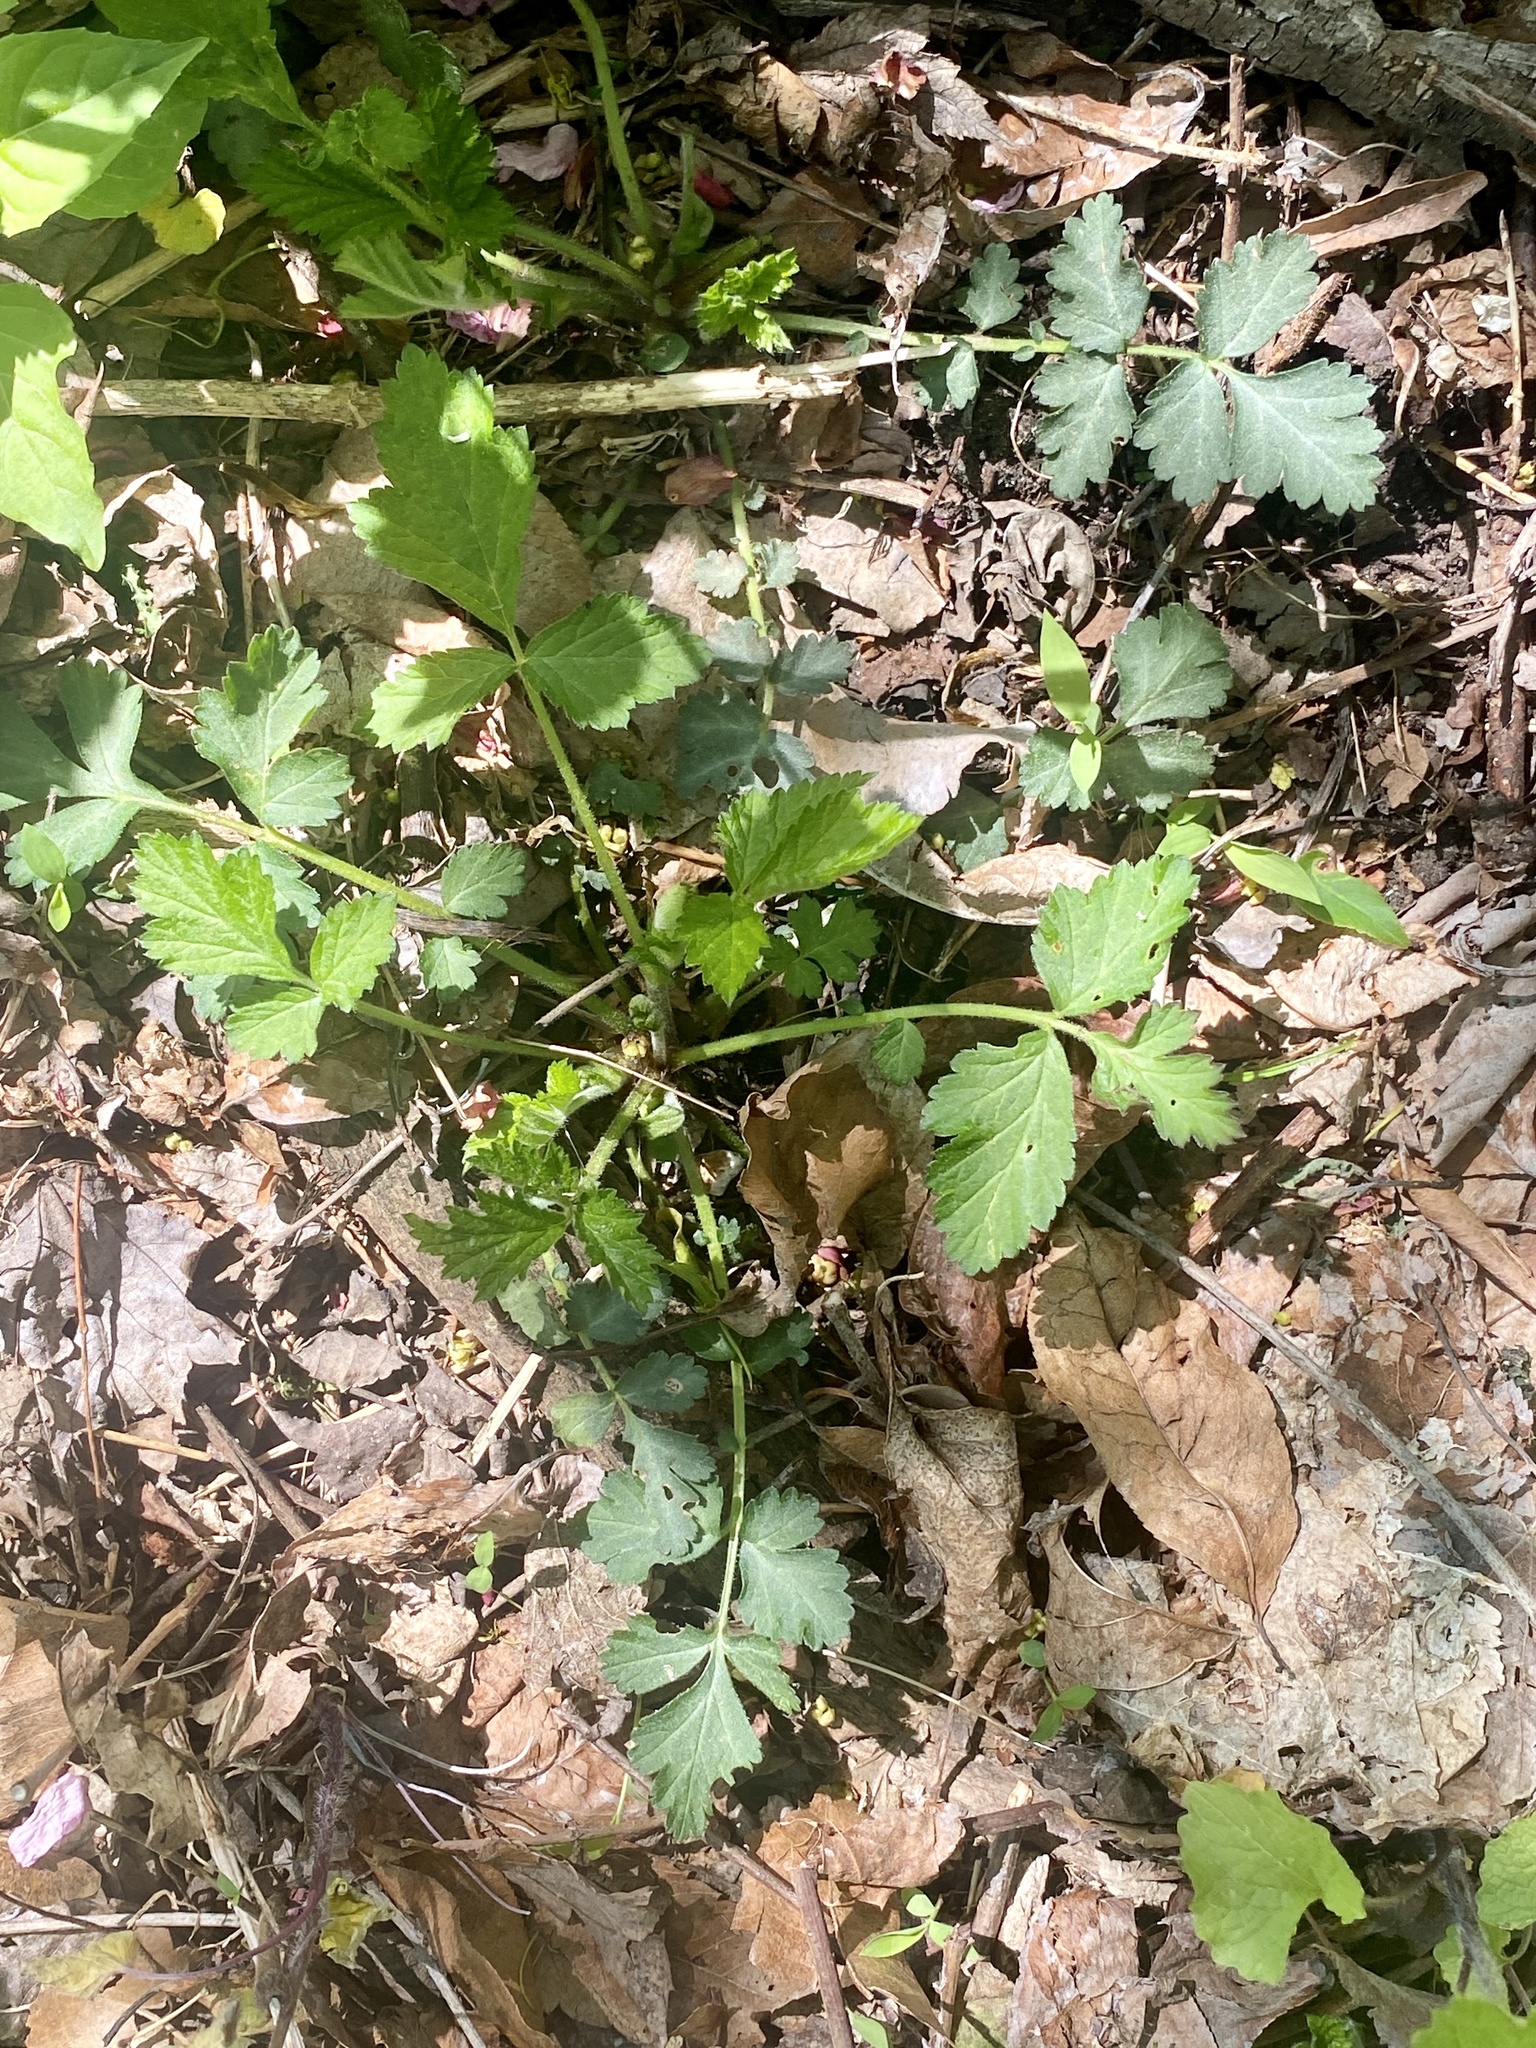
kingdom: Plantae
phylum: Tracheophyta
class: Magnoliopsida
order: Rosales
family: Rosaceae
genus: Geum
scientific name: Geum canadense
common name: White avens
